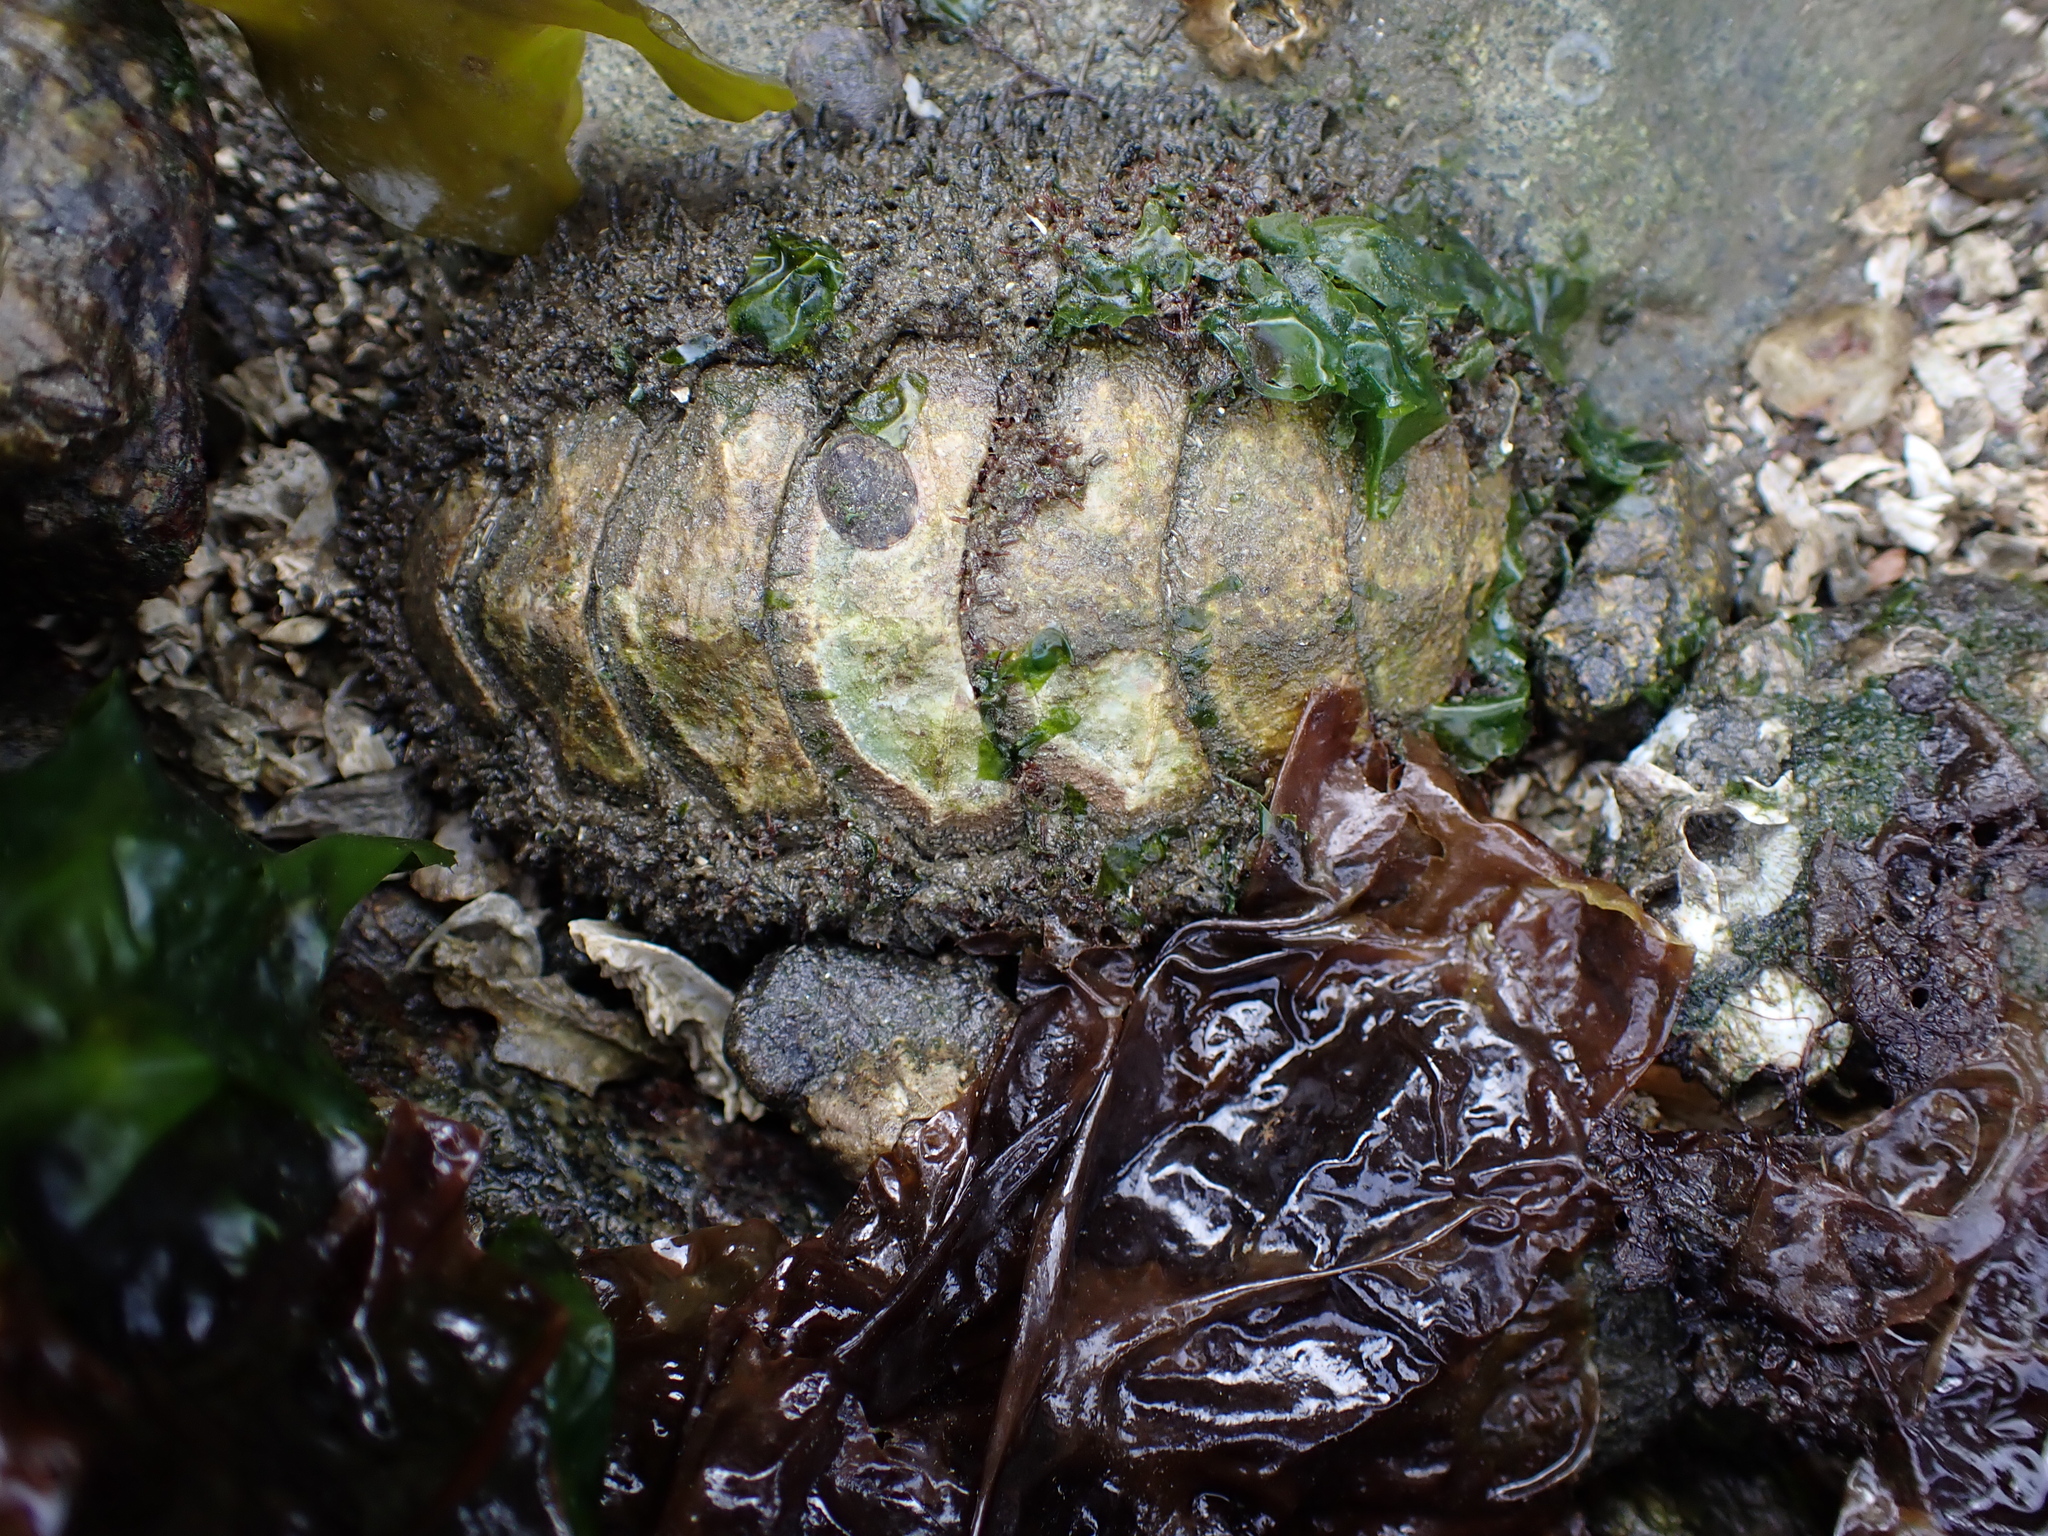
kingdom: Animalia
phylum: Mollusca
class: Polyplacophora
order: Chitonida
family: Mopaliidae
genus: Mopalia
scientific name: Mopalia muscosa
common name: Mossy chiton
